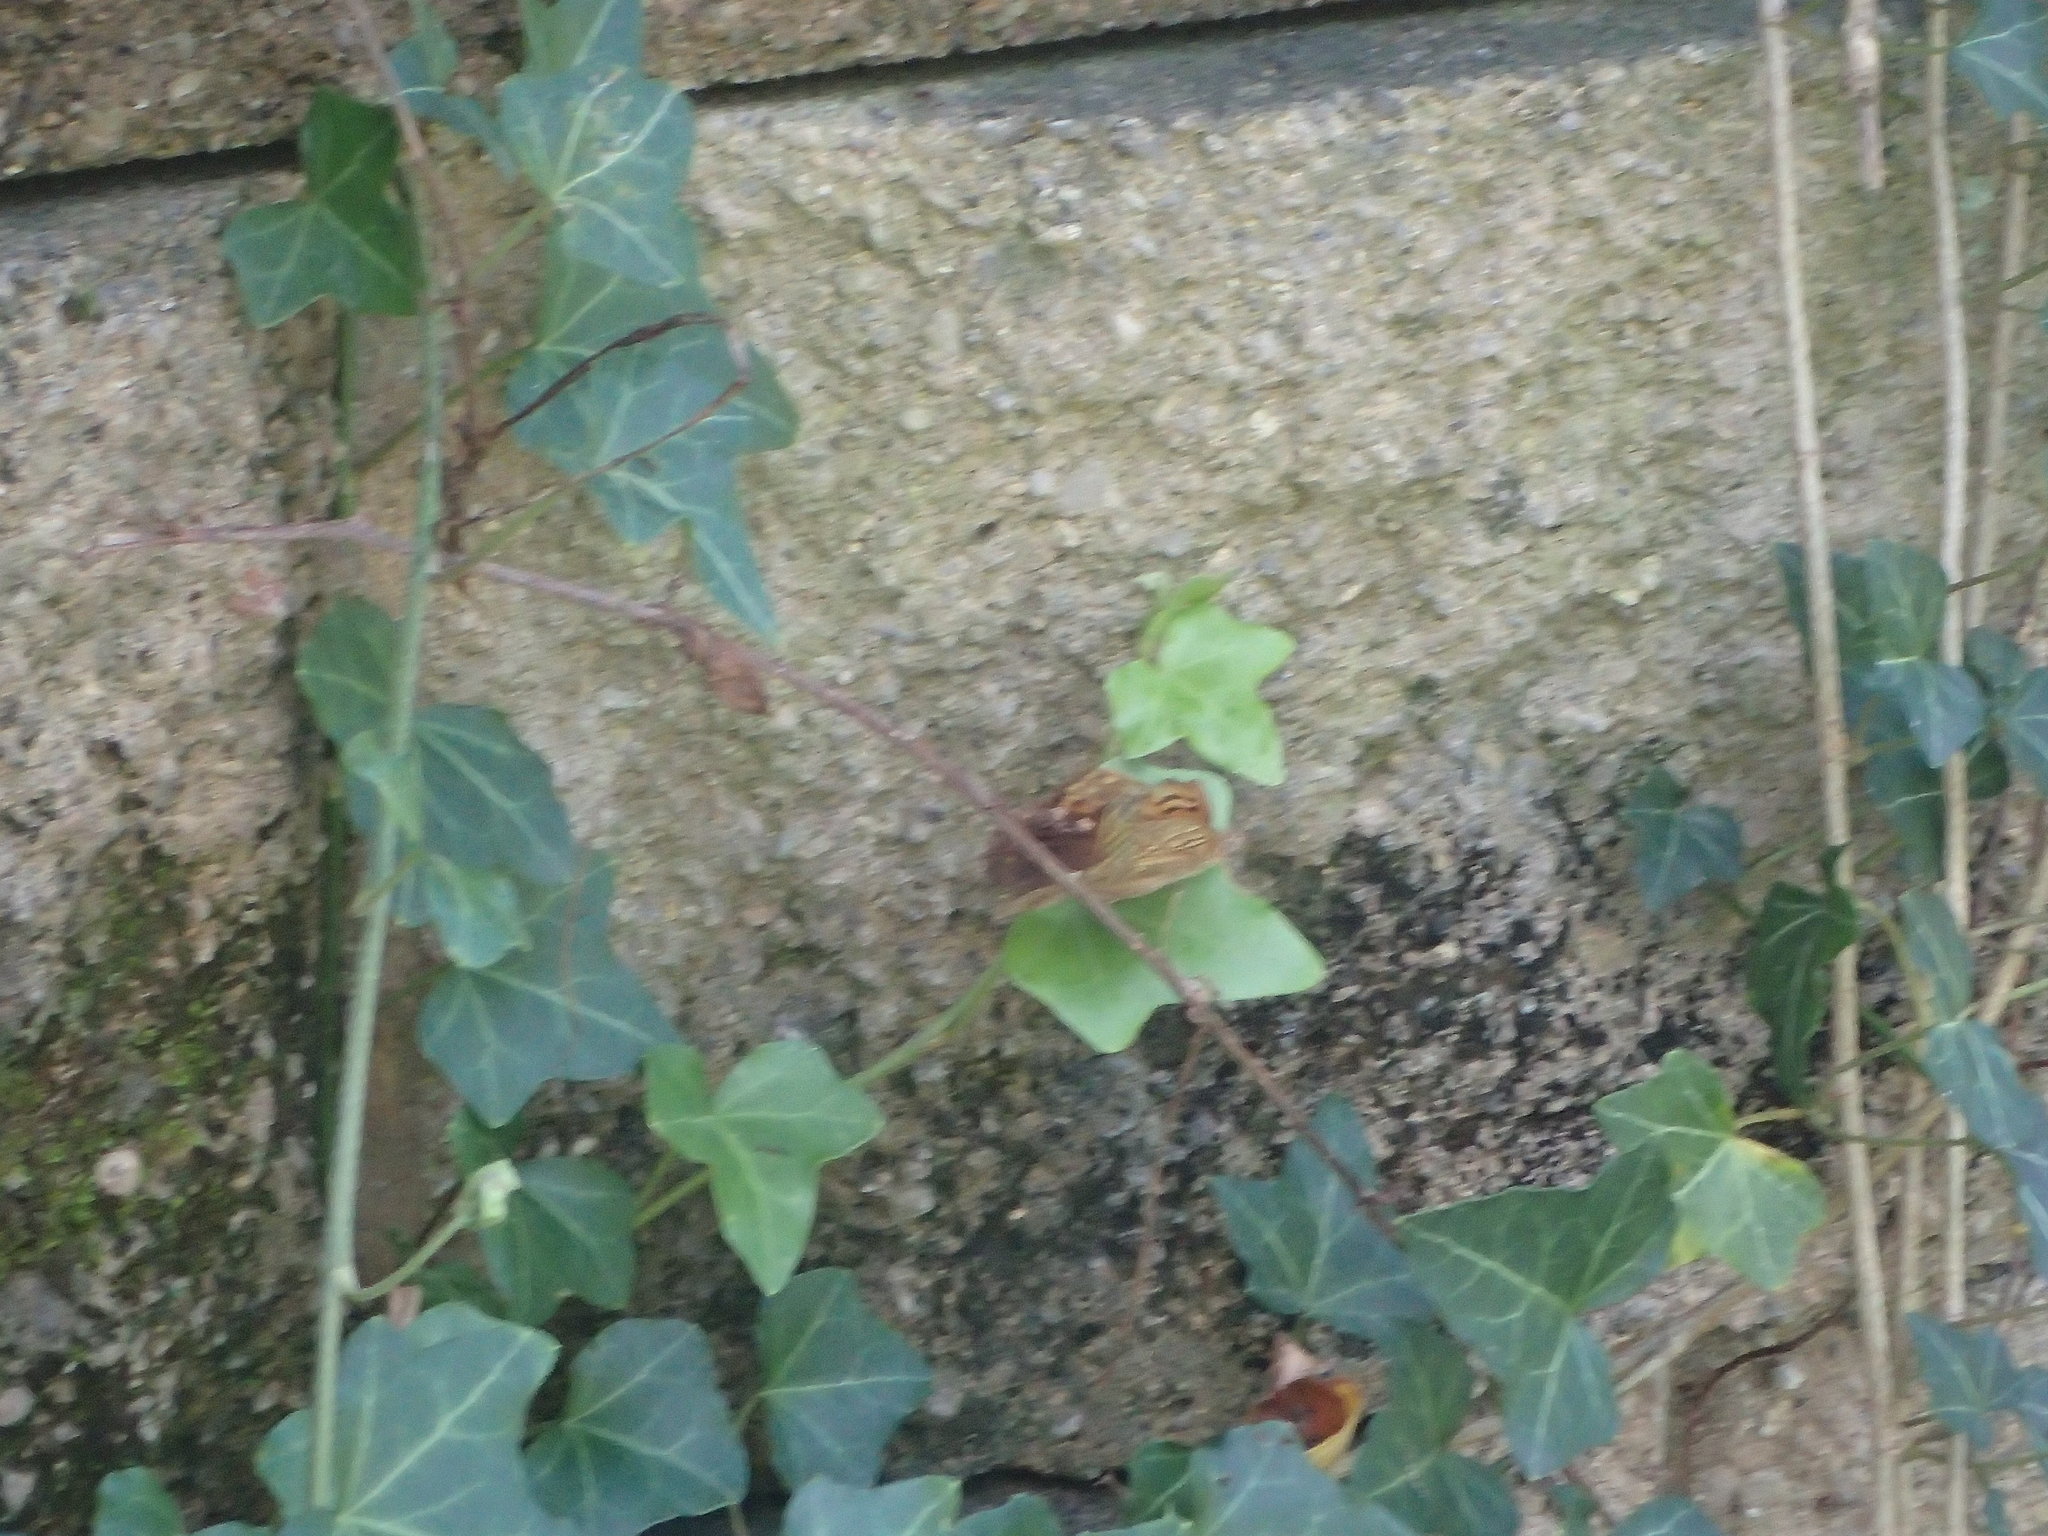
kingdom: Animalia
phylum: Arthropoda
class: Insecta
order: Lepidoptera
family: Nymphalidae
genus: Asterocampa
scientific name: Asterocampa clyton
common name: Tawny emperor
